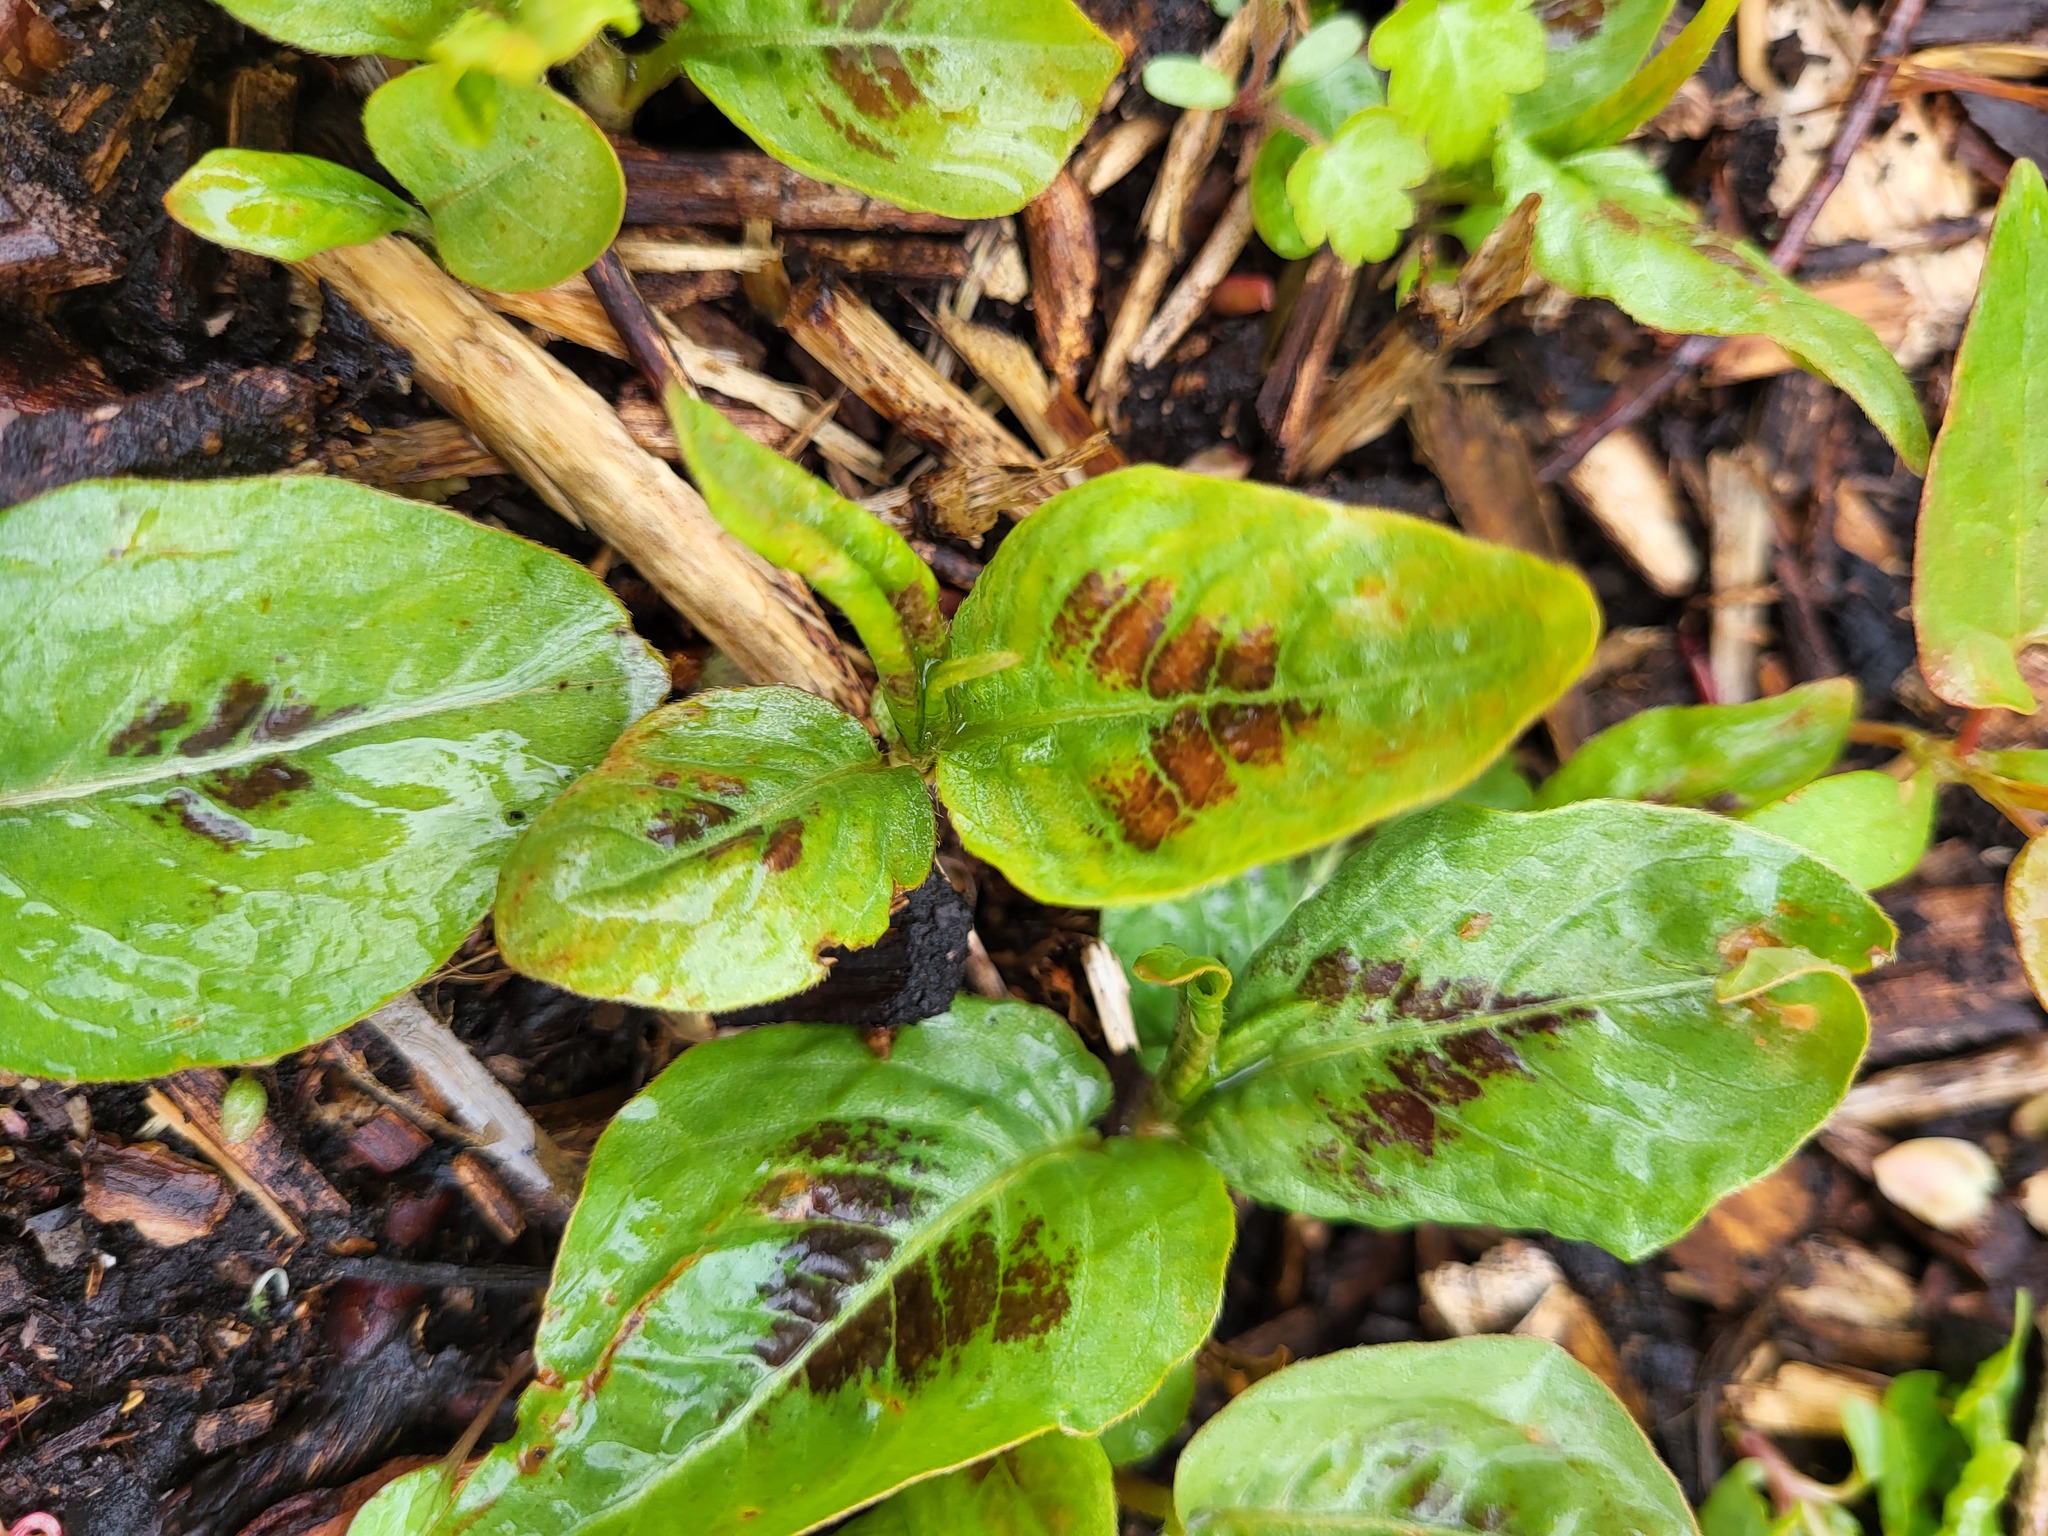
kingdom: Plantae
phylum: Tracheophyta
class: Magnoliopsida
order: Caryophyllales
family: Polygonaceae
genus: Persicaria
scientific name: Persicaria filiformis
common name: Asian jumpseed
